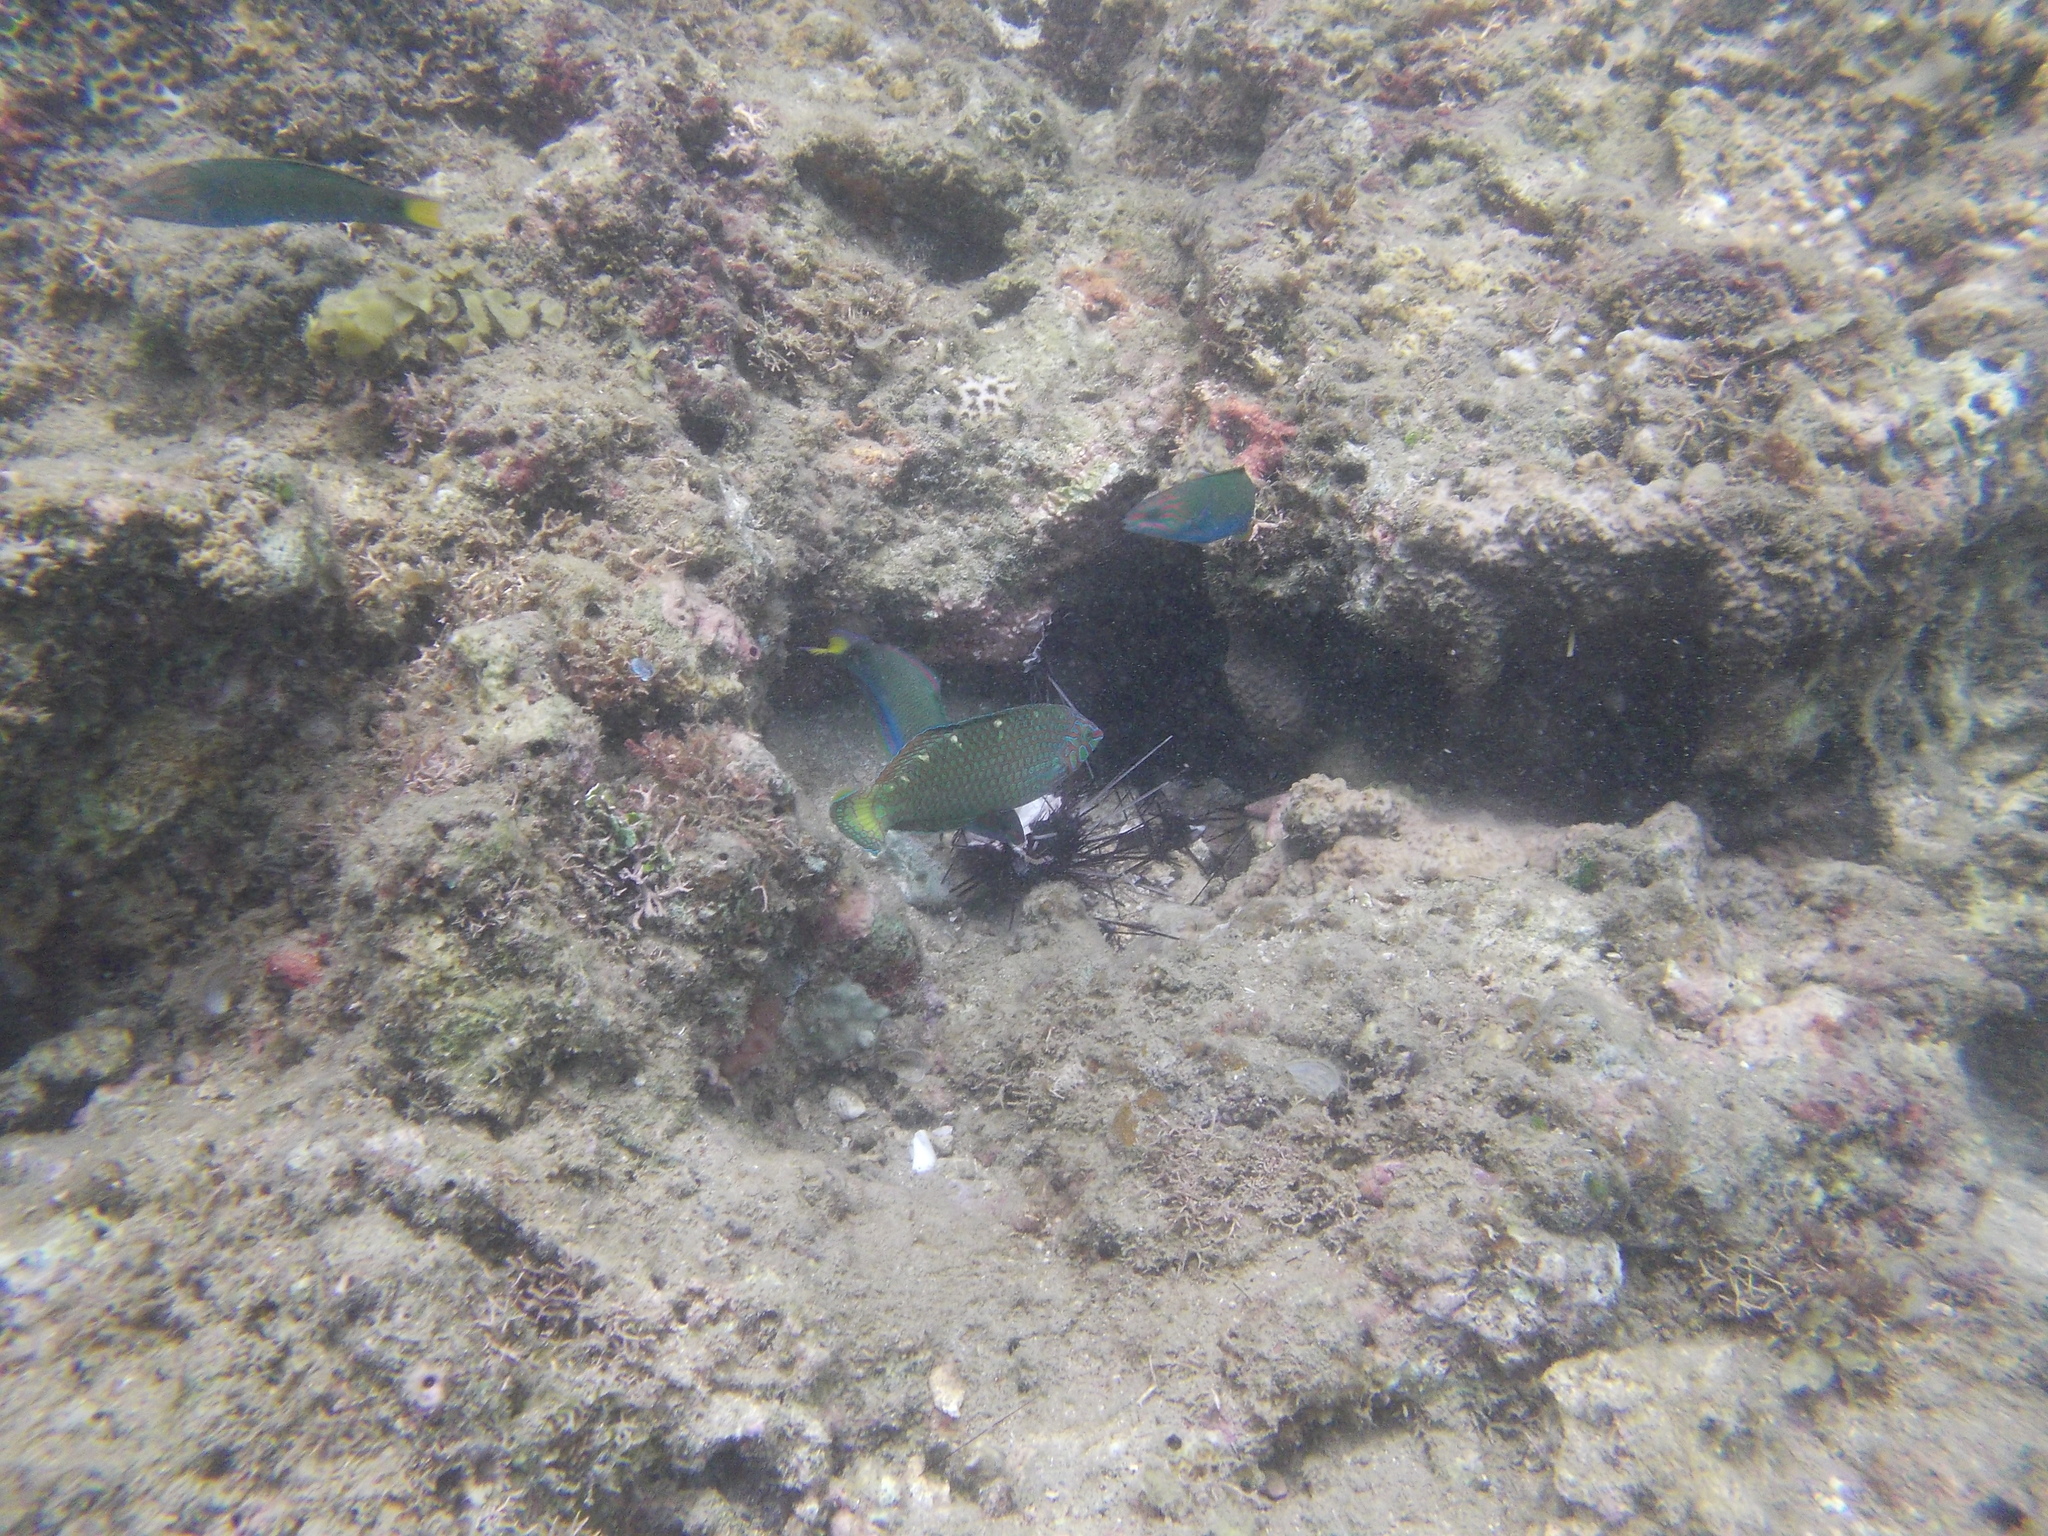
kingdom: Animalia
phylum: Chordata
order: Perciformes
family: Labridae
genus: Halichoeres
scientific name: Halichoeres argus
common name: Argus wrasse
